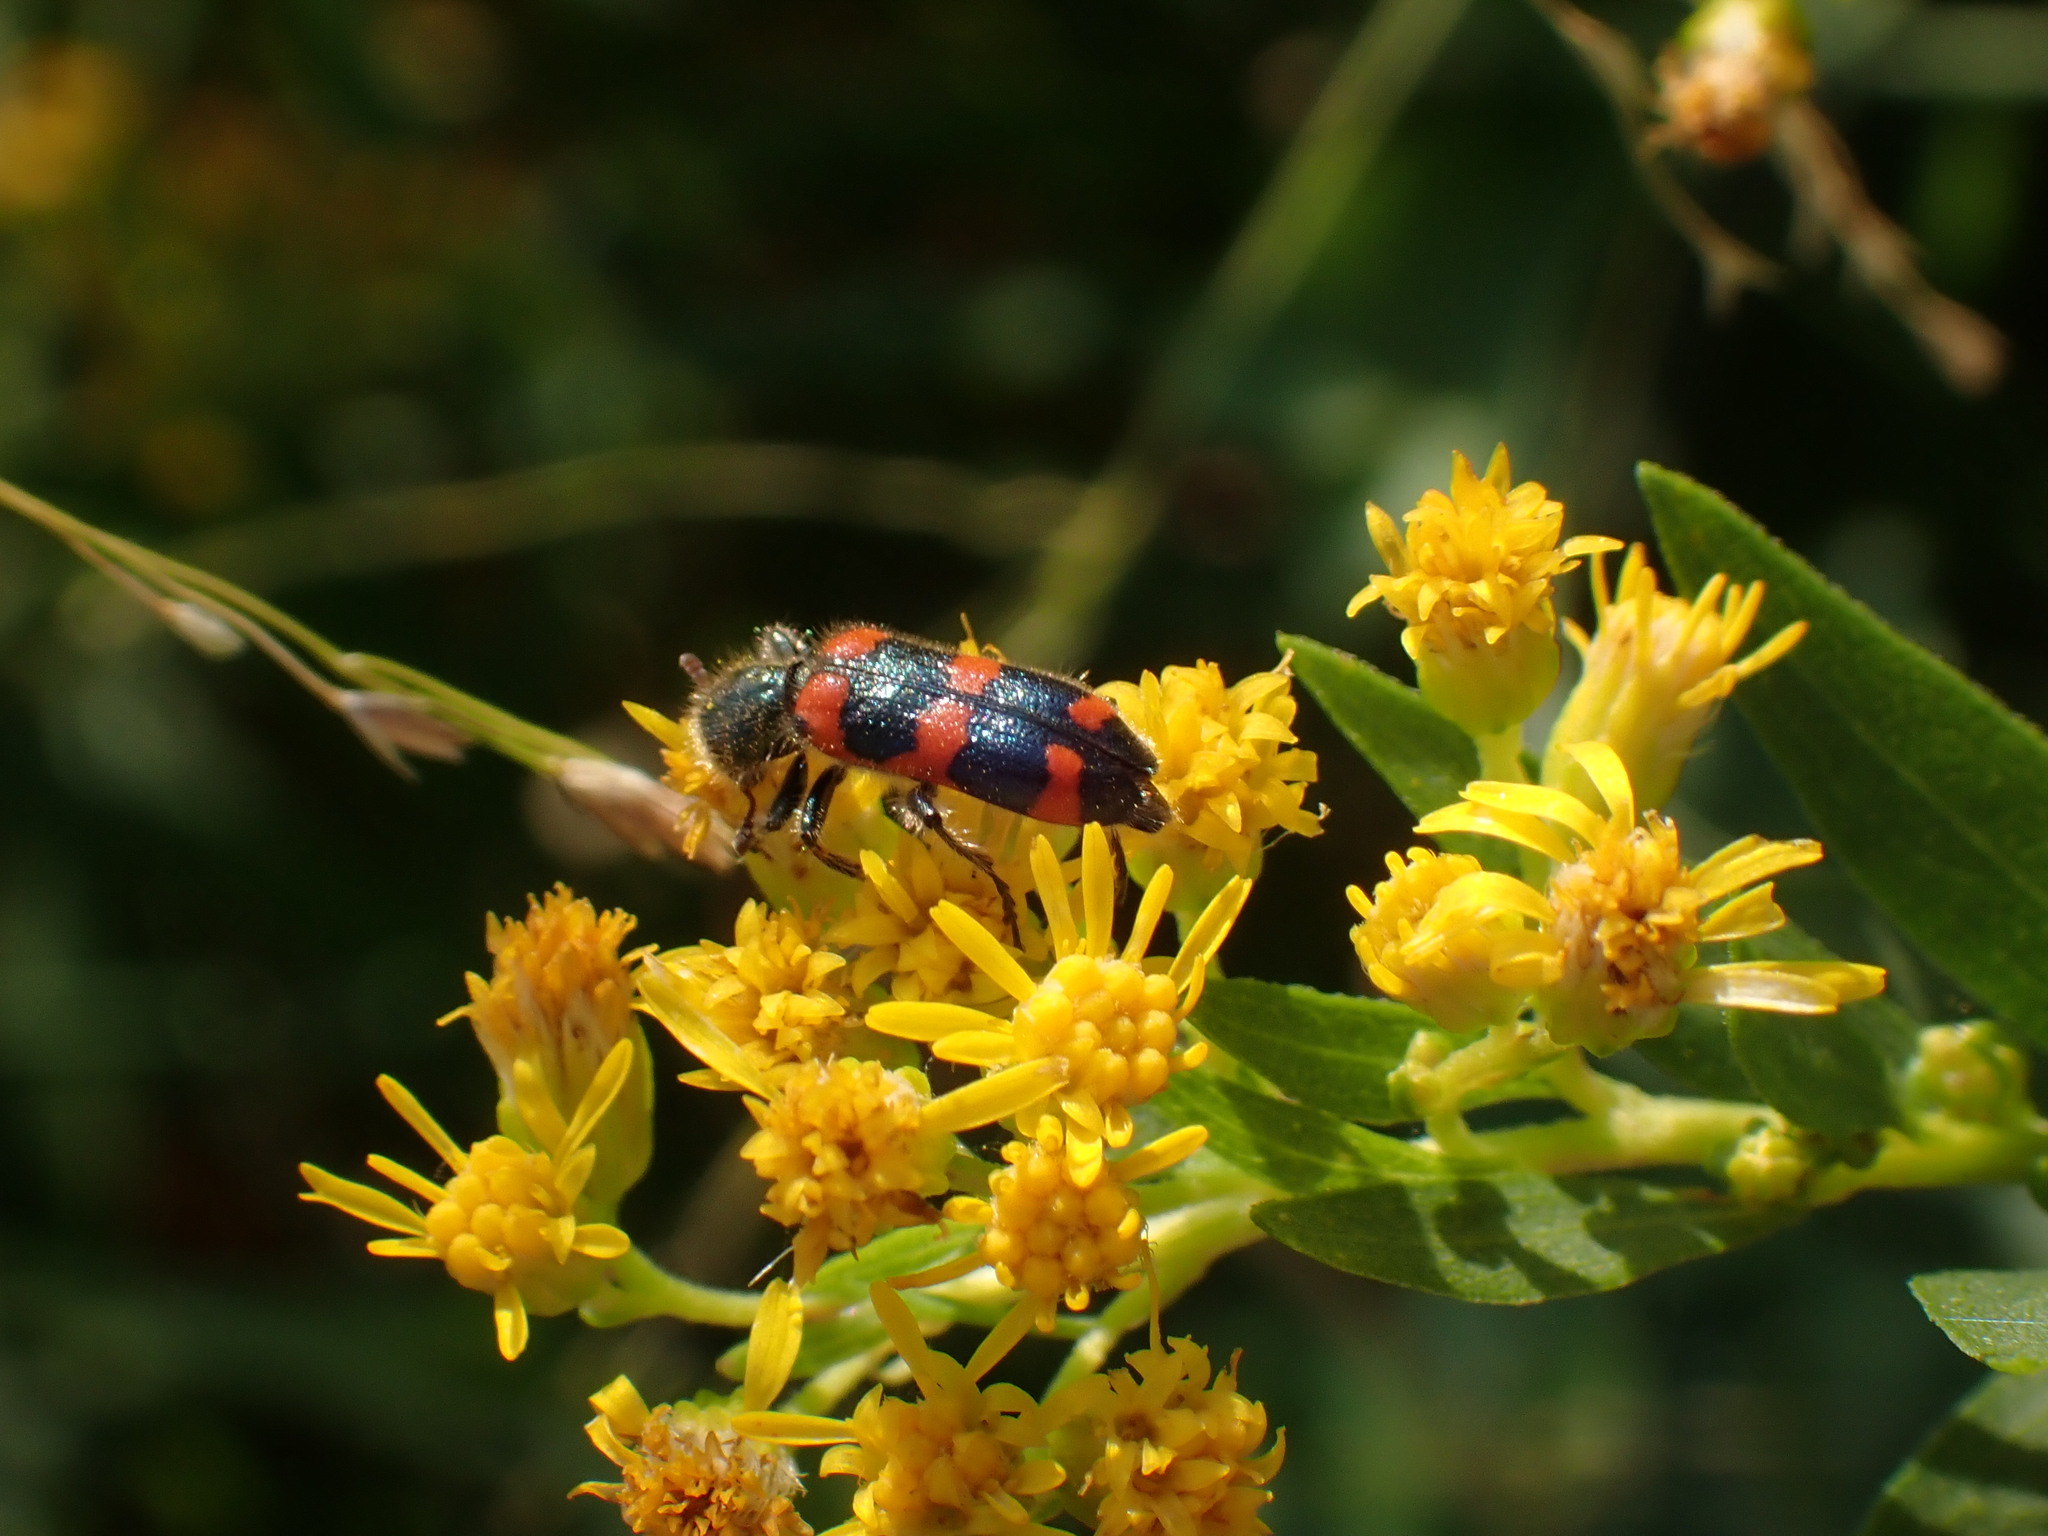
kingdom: Animalia
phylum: Arthropoda
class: Insecta
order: Coleoptera
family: Cleridae
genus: Trichodes
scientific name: Trichodes nutalli
